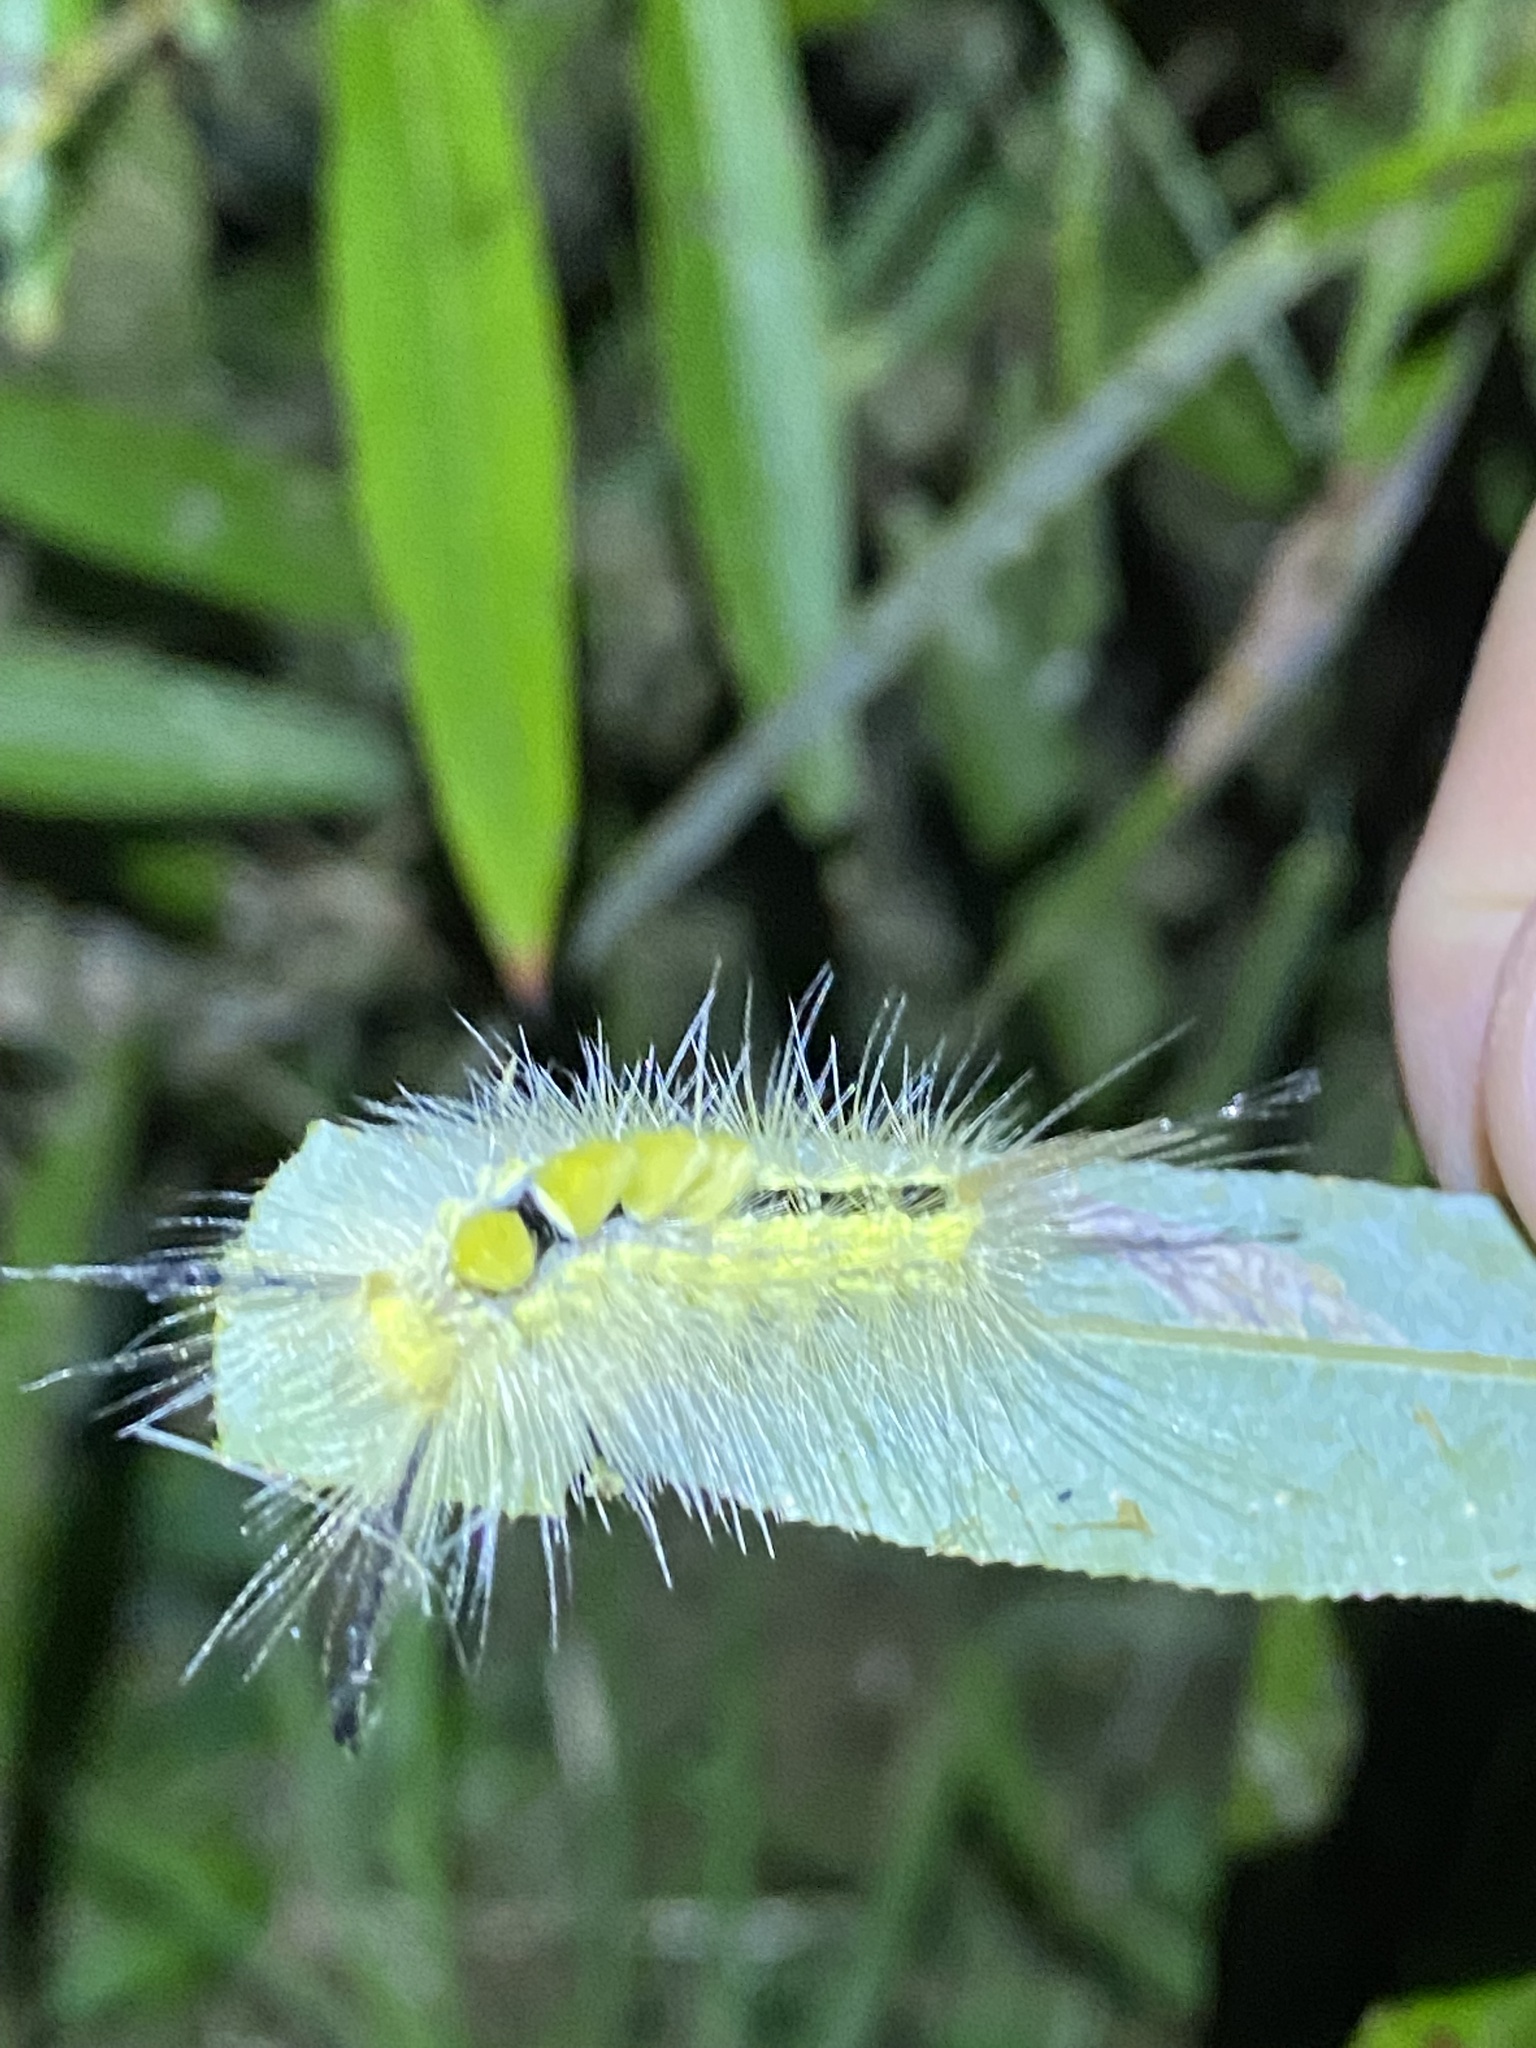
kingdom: Animalia
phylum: Arthropoda
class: Insecta
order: Lepidoptera
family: Erebidae
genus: Orgyia
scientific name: Orgyia definita
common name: Definite tussock moth
